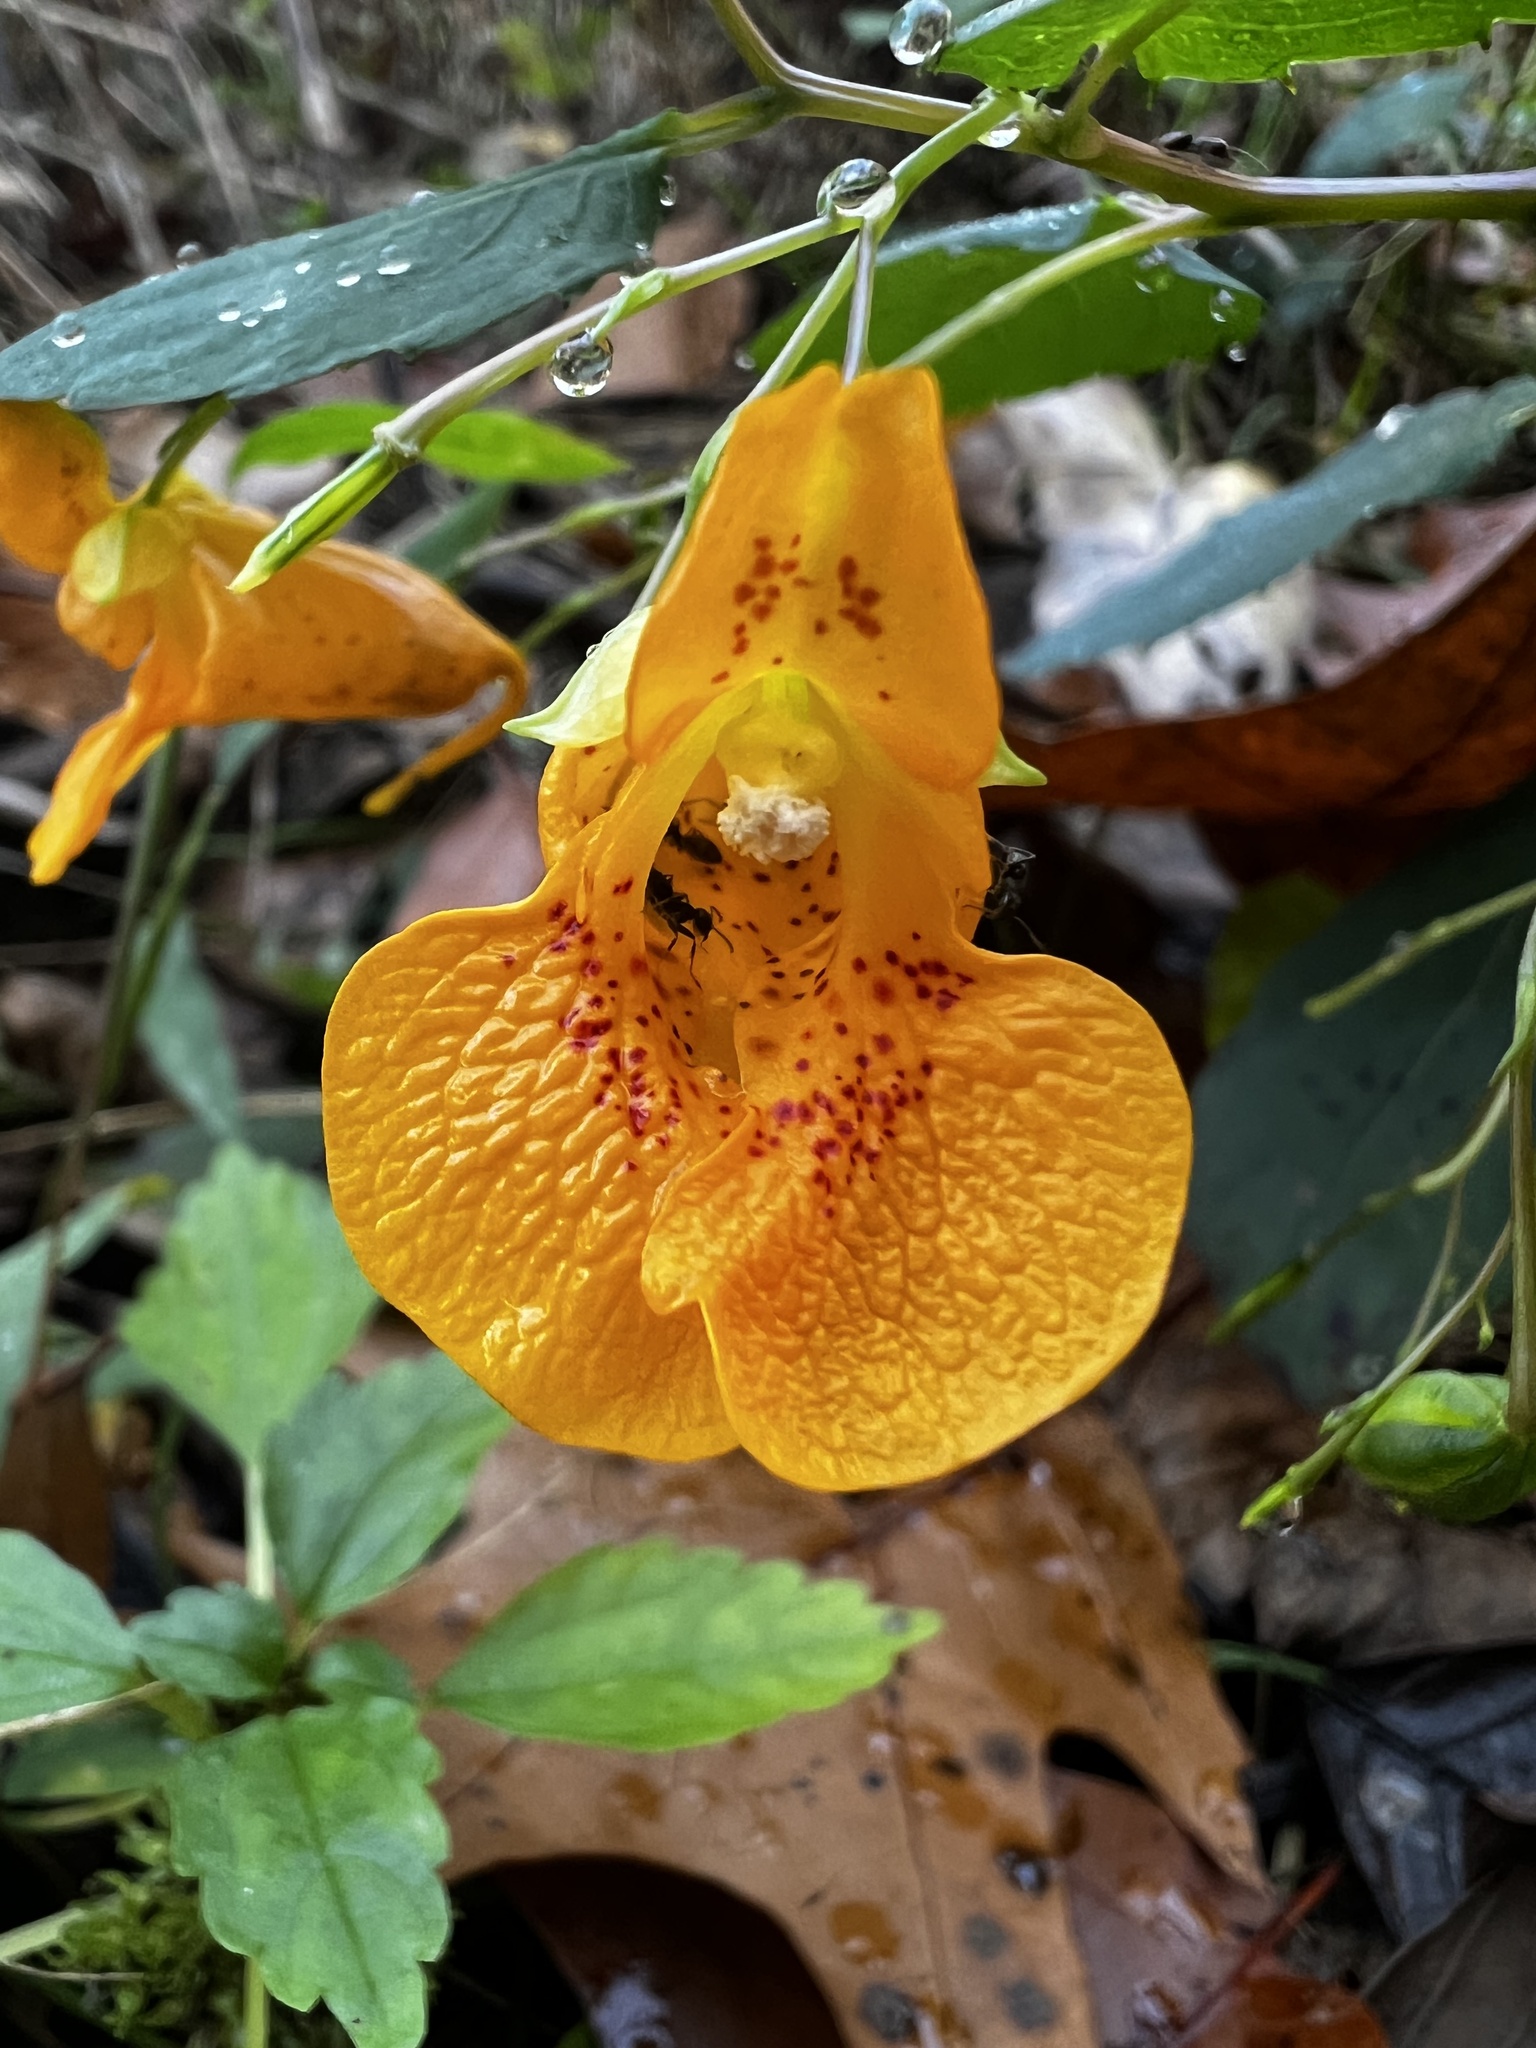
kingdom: Plantae
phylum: Tracheophyta
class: Magnoliopsida
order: Ericales
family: Balsaminaceae
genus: Impatiens
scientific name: Impatiens capensis
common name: Orange balsam
